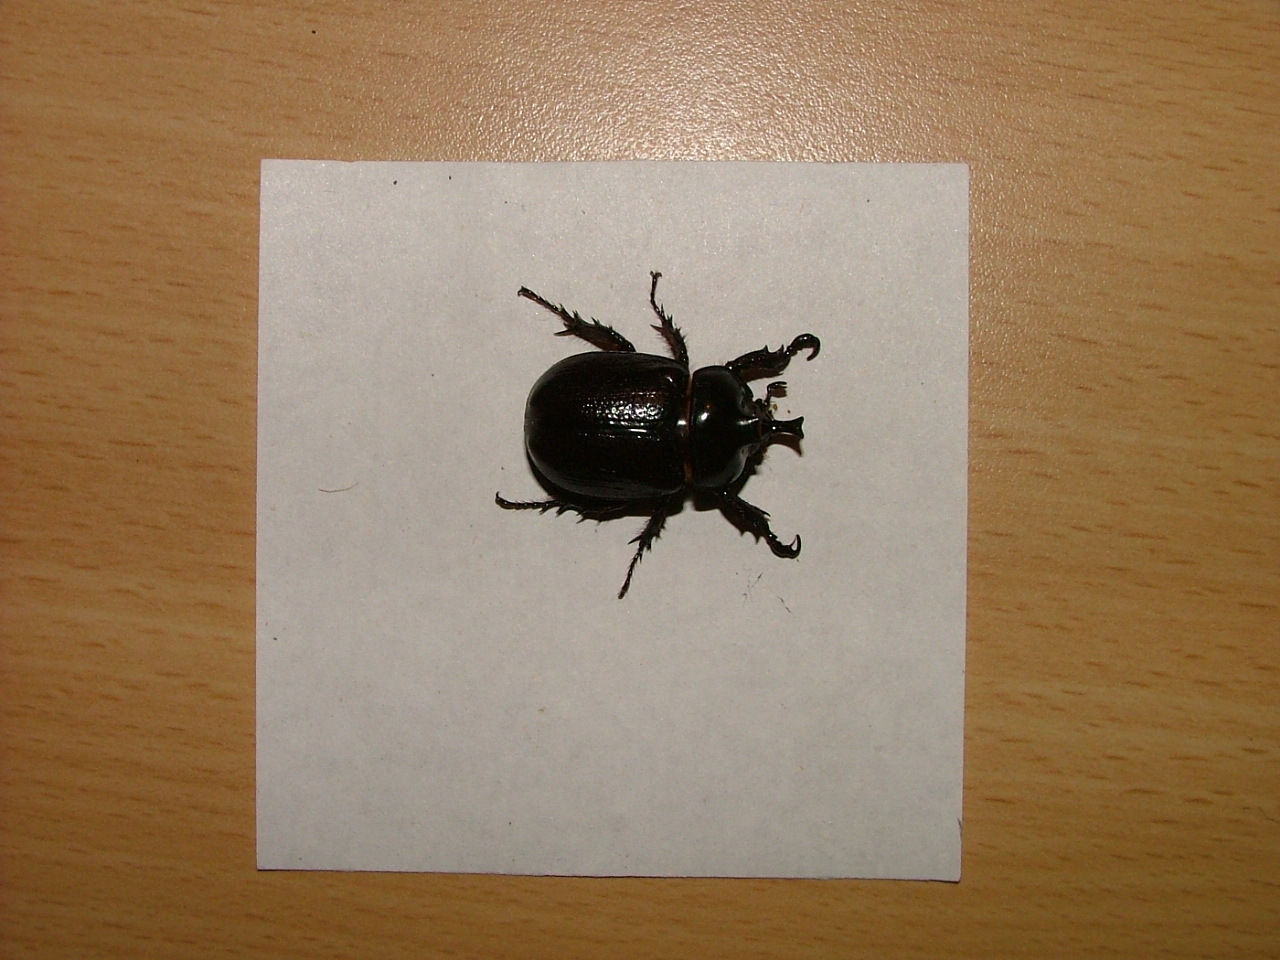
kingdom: Animalia
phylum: Arthropoda
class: Insecta
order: Coleoptera
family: Scarabaeidae
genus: Cyphonistes
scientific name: Cyphonistes vallatus
